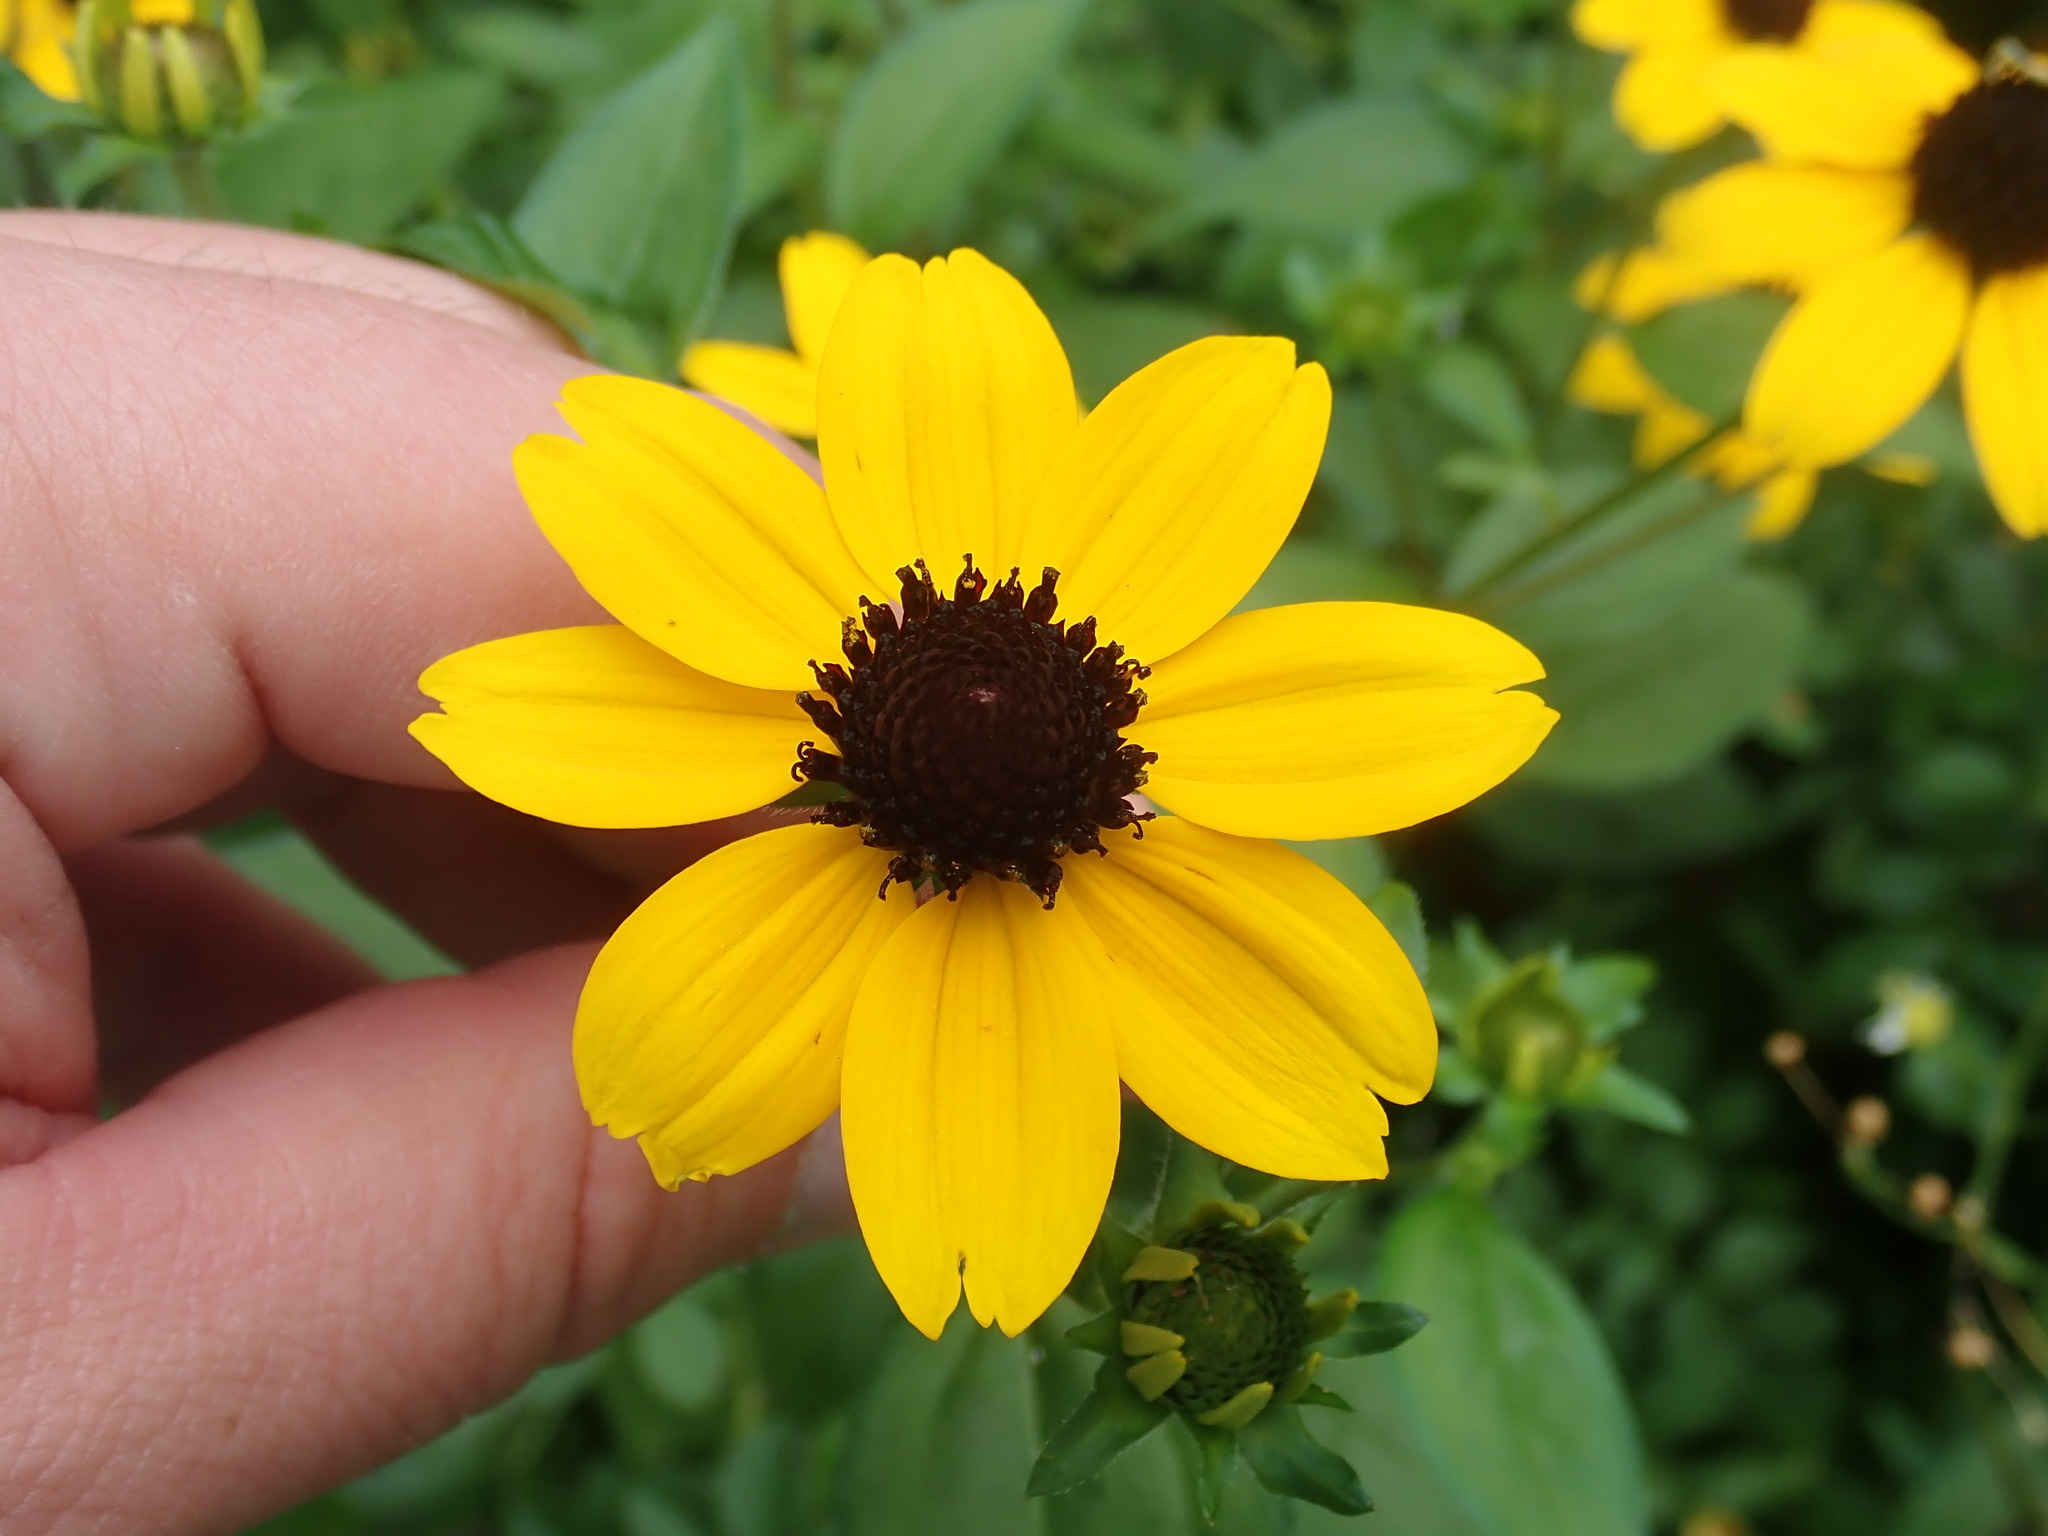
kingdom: Plantae
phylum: Tracheophyta
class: Magnoliopsida
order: Asterales
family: Asteraceae
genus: Rudbeckia
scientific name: Rudbeckia triloba
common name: Thin-leaved coneflower
